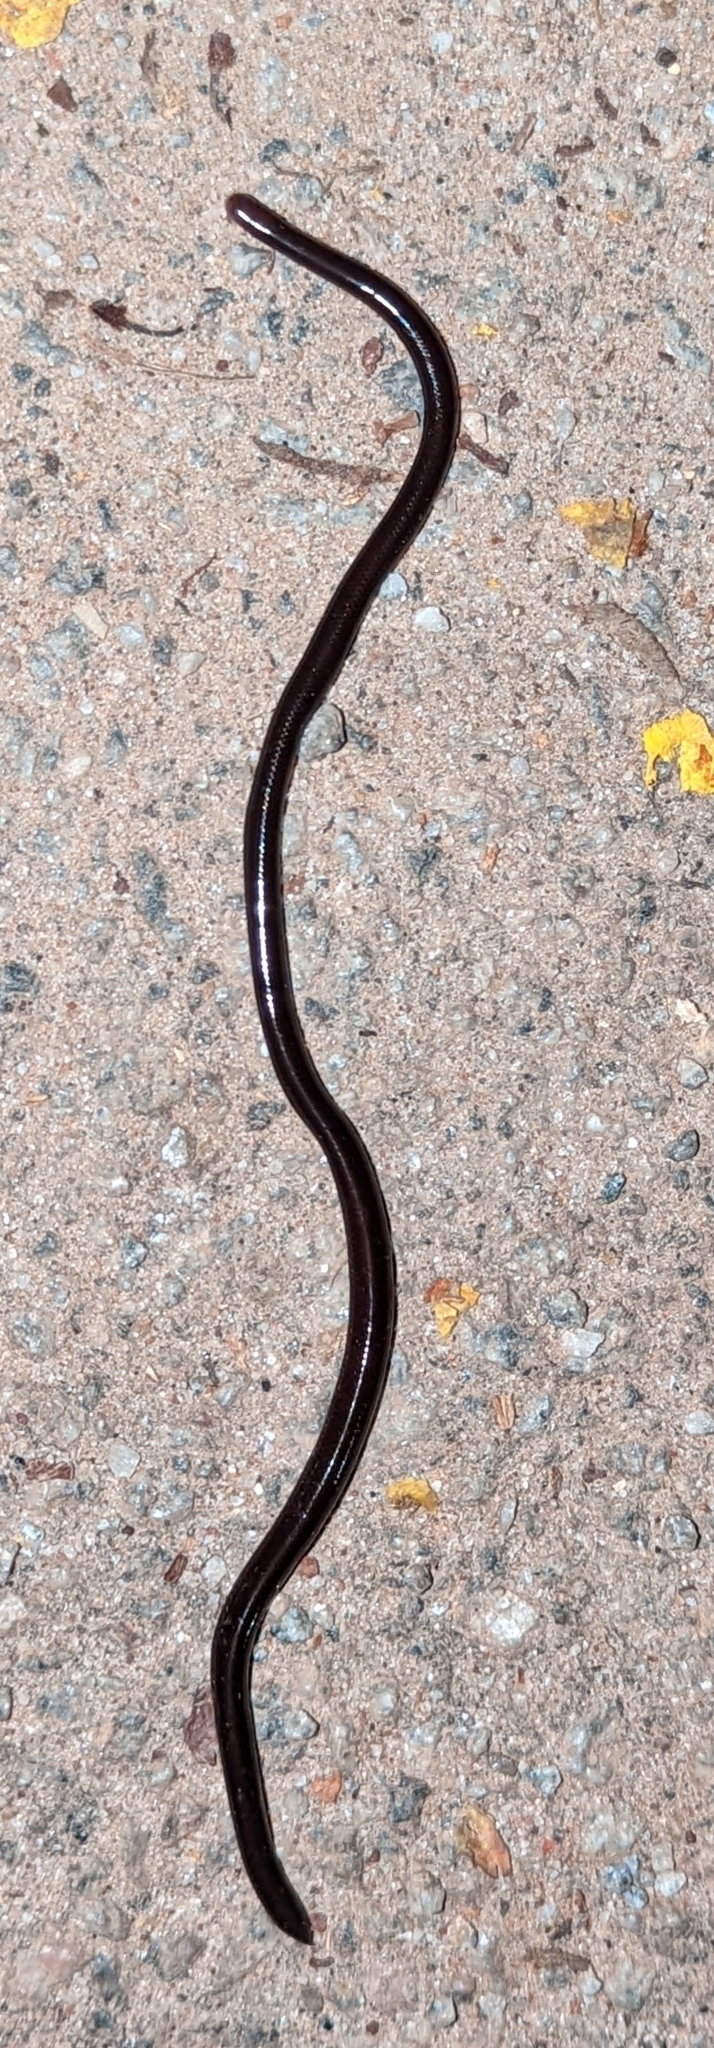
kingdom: Animalia
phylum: Chordata
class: Squamata
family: Typhlopidae
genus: Indotyphlops
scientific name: Indotyphlops braminus
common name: Brahminy blindsnake
